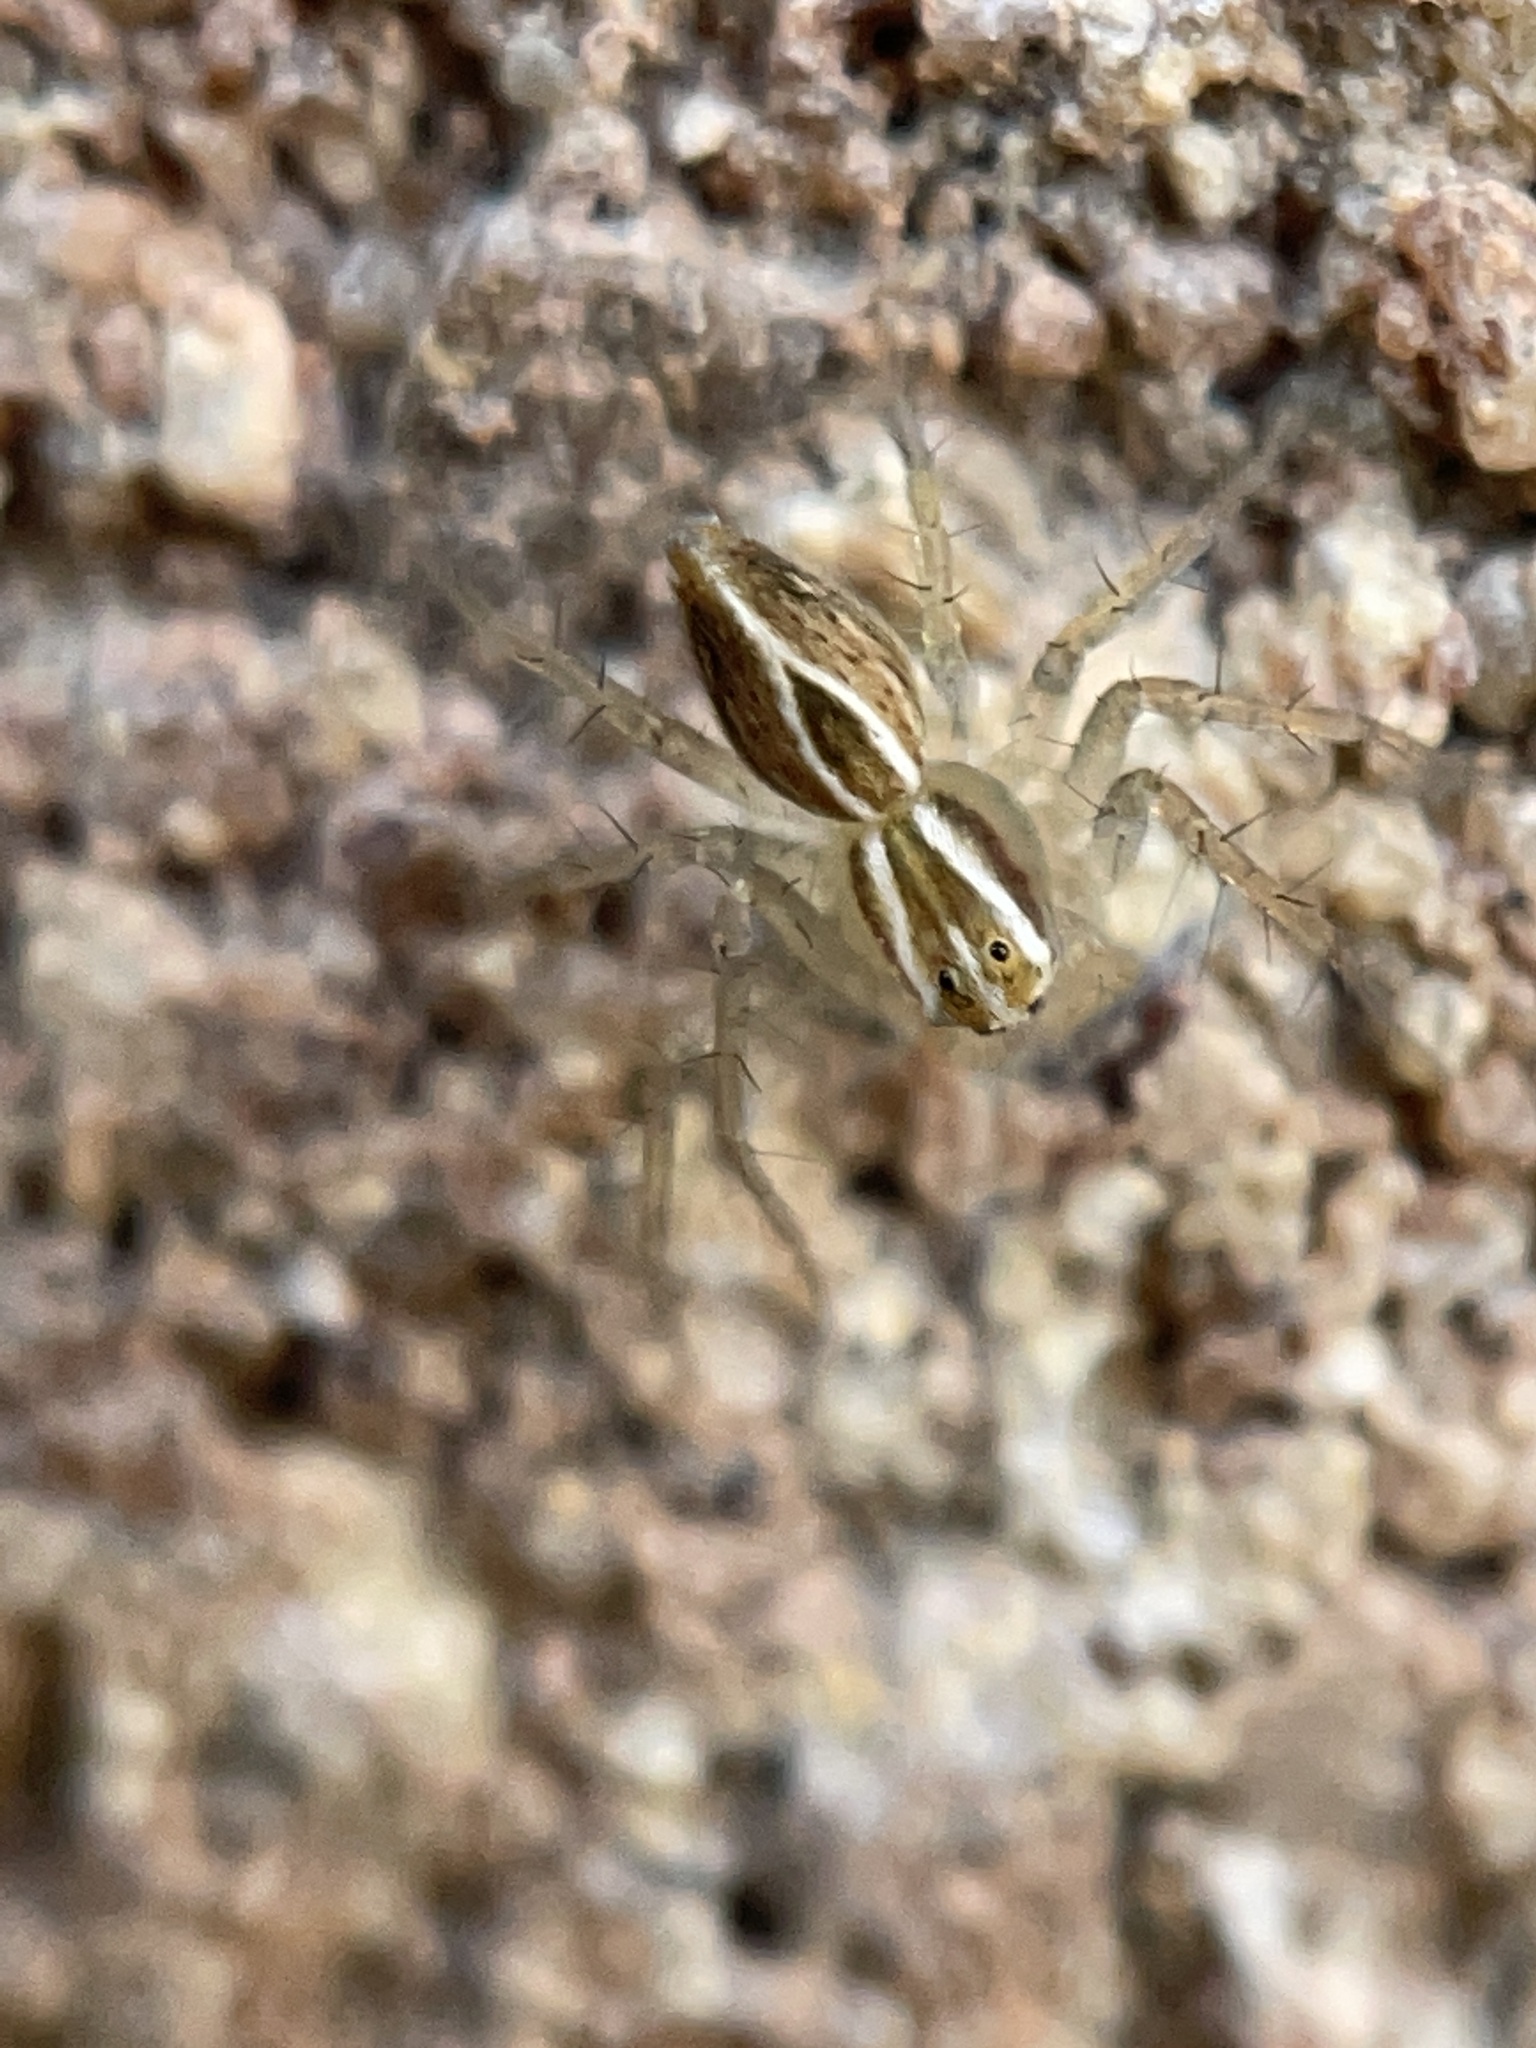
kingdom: Animalia
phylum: Arthropoda
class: Arachnida
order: Araneae
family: Oxyopidae
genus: Oxyopes
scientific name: Oxyopes salticus
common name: Lynx spiders
